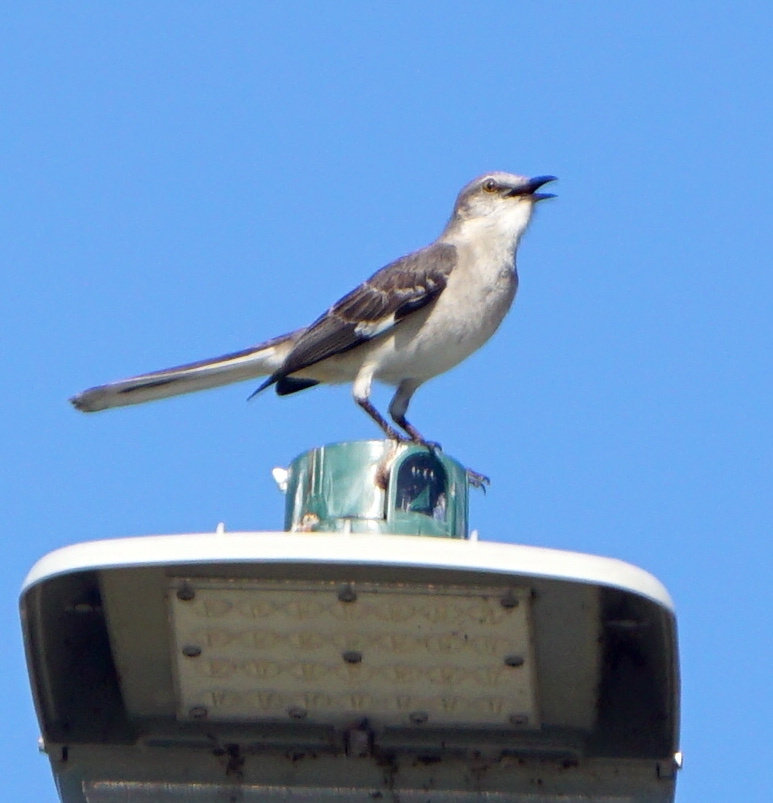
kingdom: Animalia
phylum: Chordata
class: Aves
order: Passeriformes
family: Mimidae
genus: Mimus
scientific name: Mimus polyglottos
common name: Northern mockingbird
